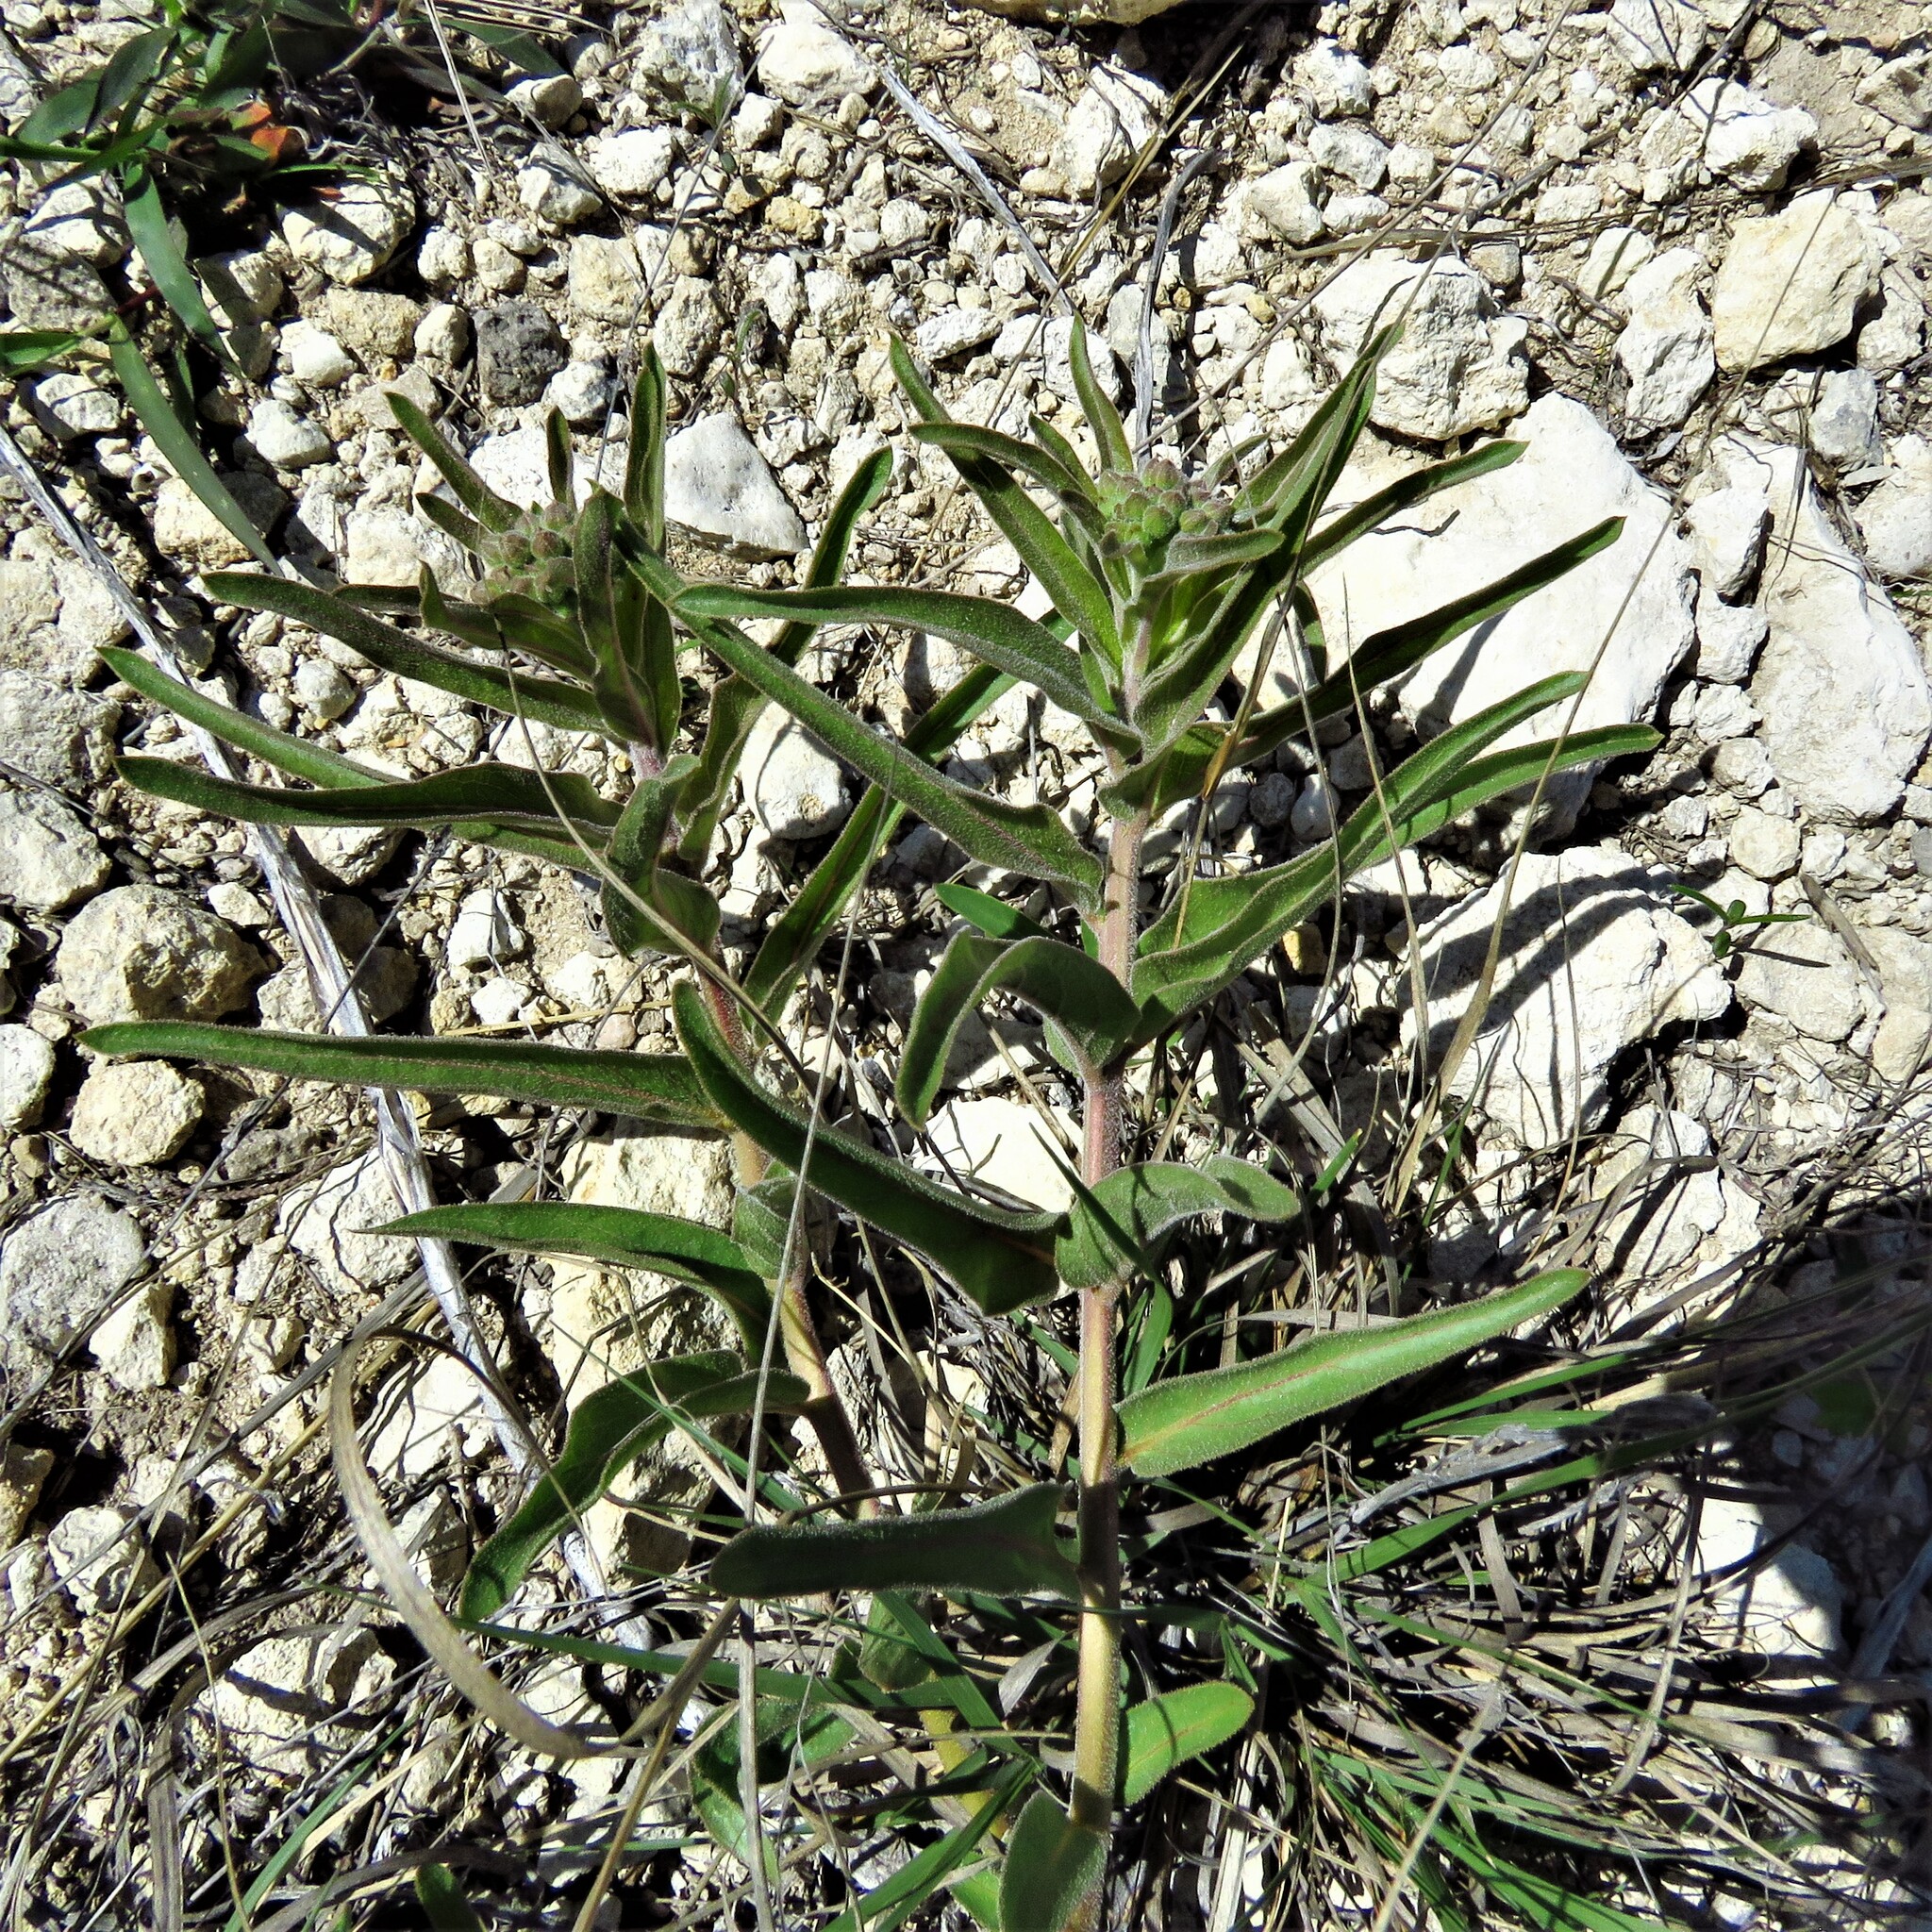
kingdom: Plantae
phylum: Tracheophyta
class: Magnoliopsida
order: Gentianales
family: Apocynaceae
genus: Asclepias
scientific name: Asclepias asperula
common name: Antelope horns
